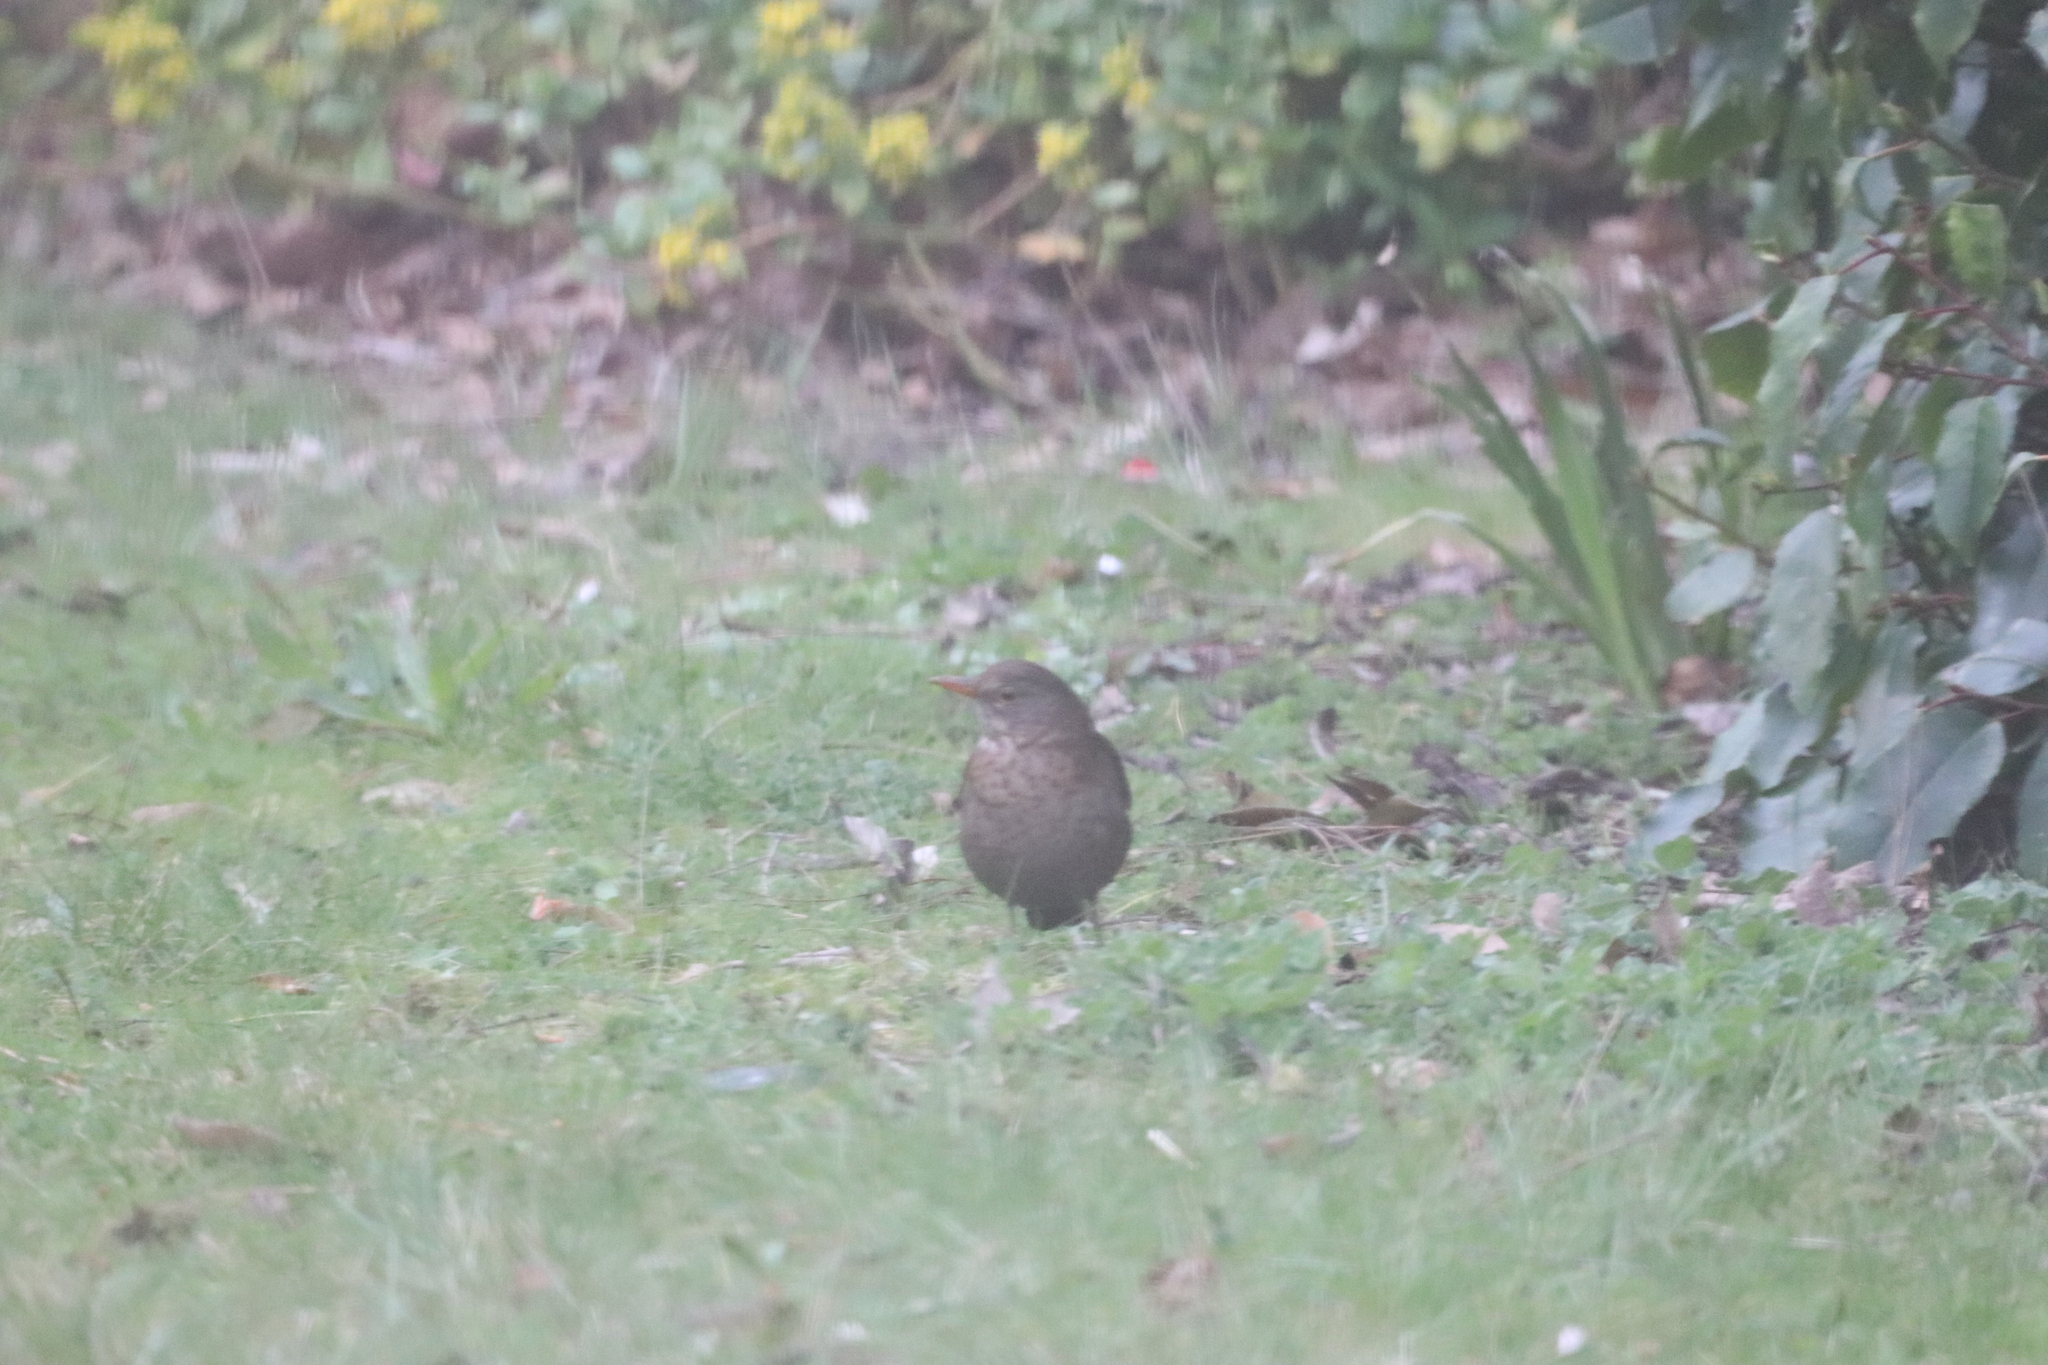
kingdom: Animalia
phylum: Chordata
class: Aves
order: Passeriformes
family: Turdidae
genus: Turdus
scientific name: Turdus merula
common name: Common blackbird
